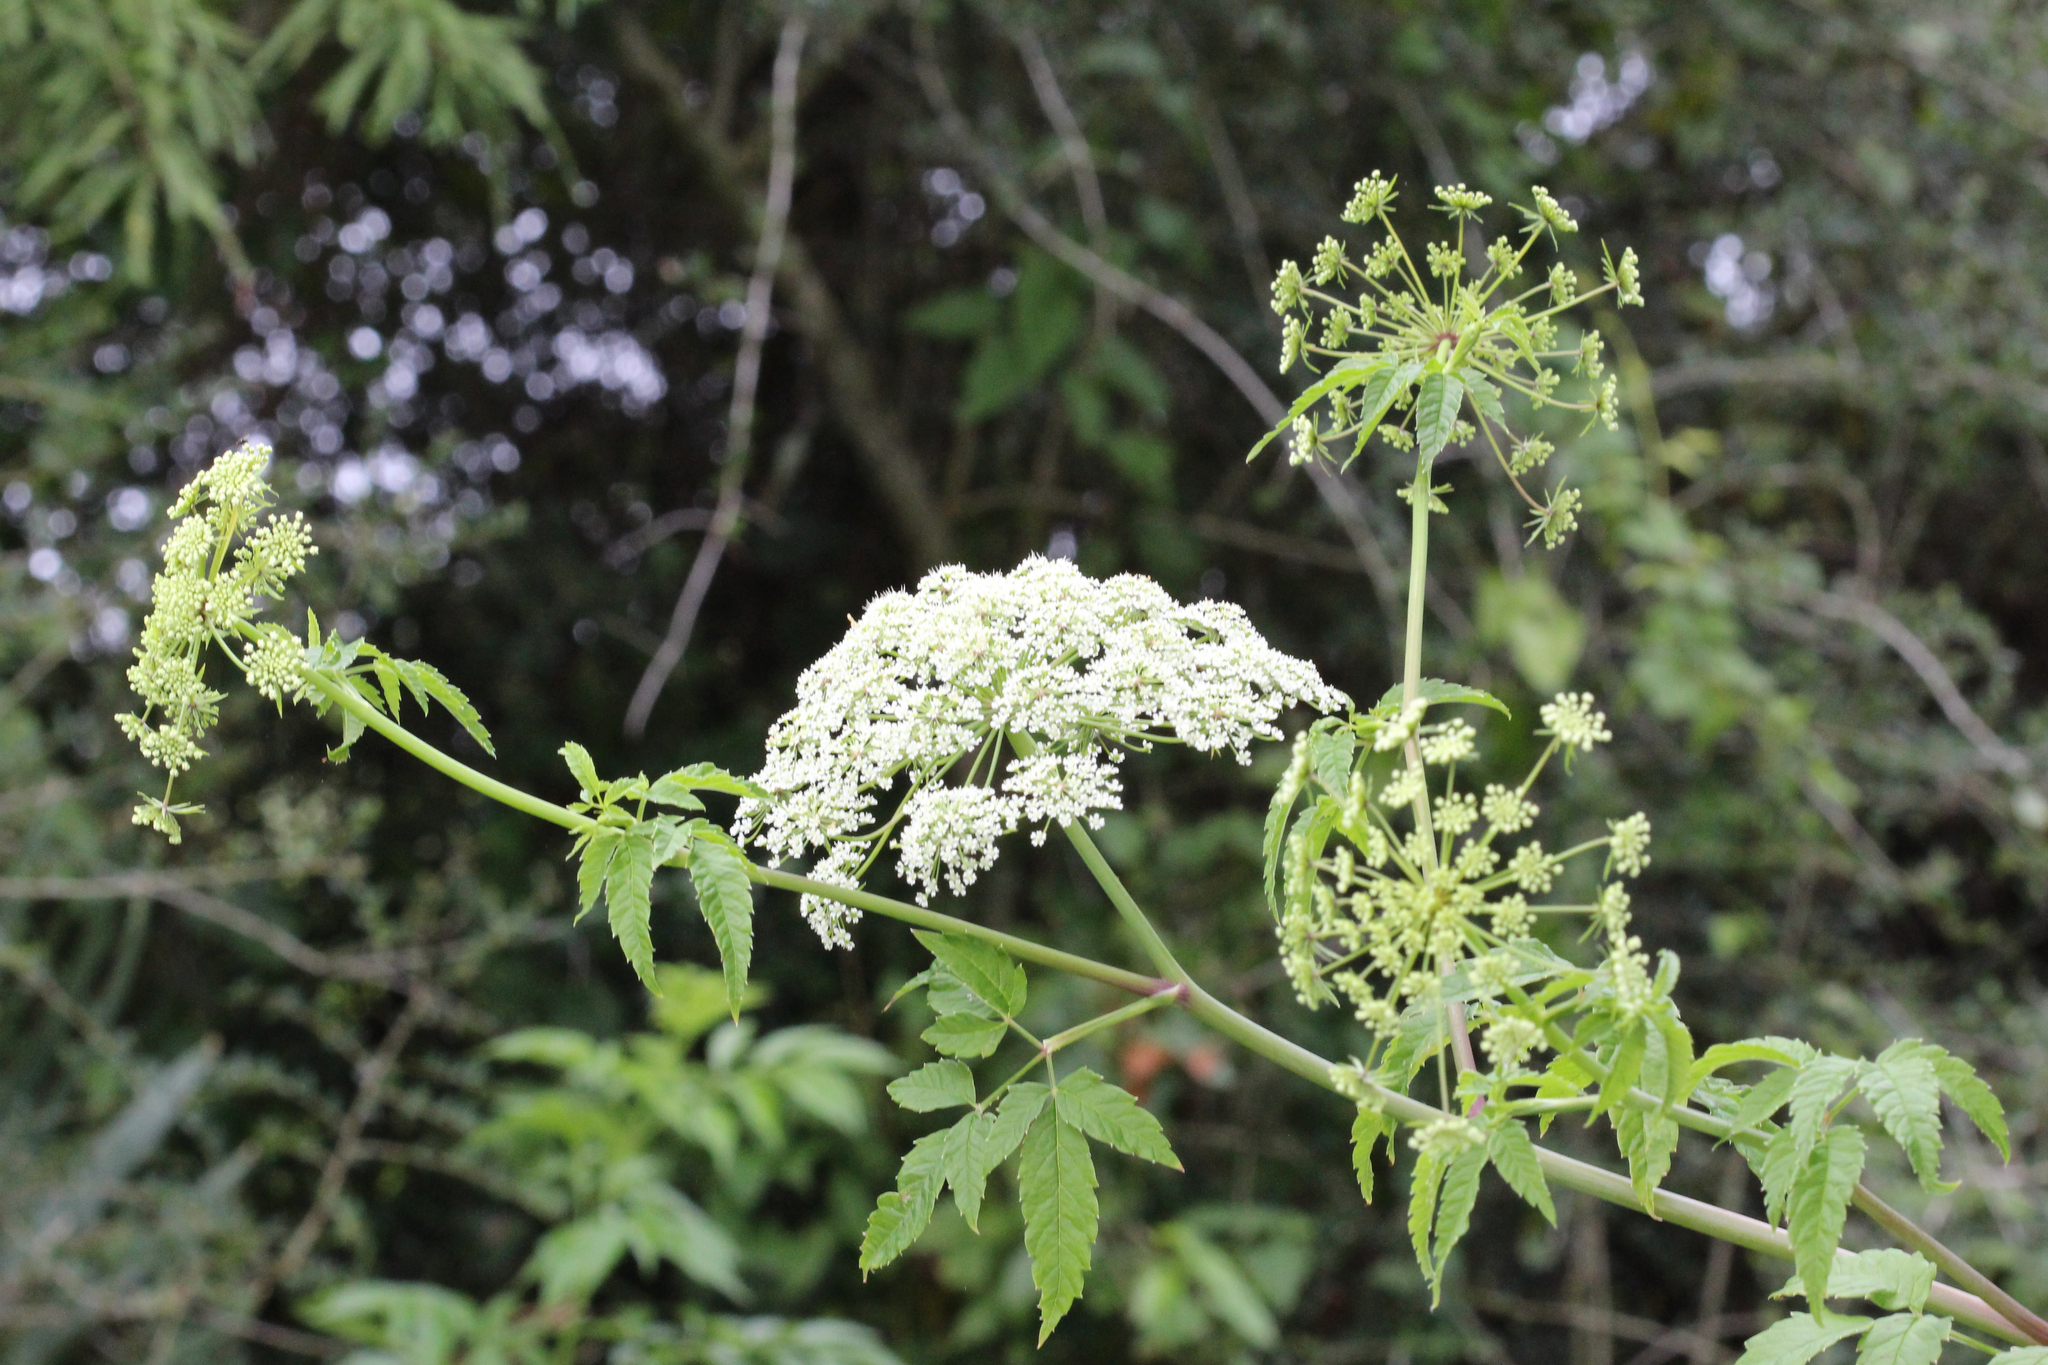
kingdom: Plantae
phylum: Tracheophyta
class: Magnoliopsida
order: Apiales
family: Apiaceae
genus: Cicuta
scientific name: Cicuta maculata
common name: Spotted cowbane
